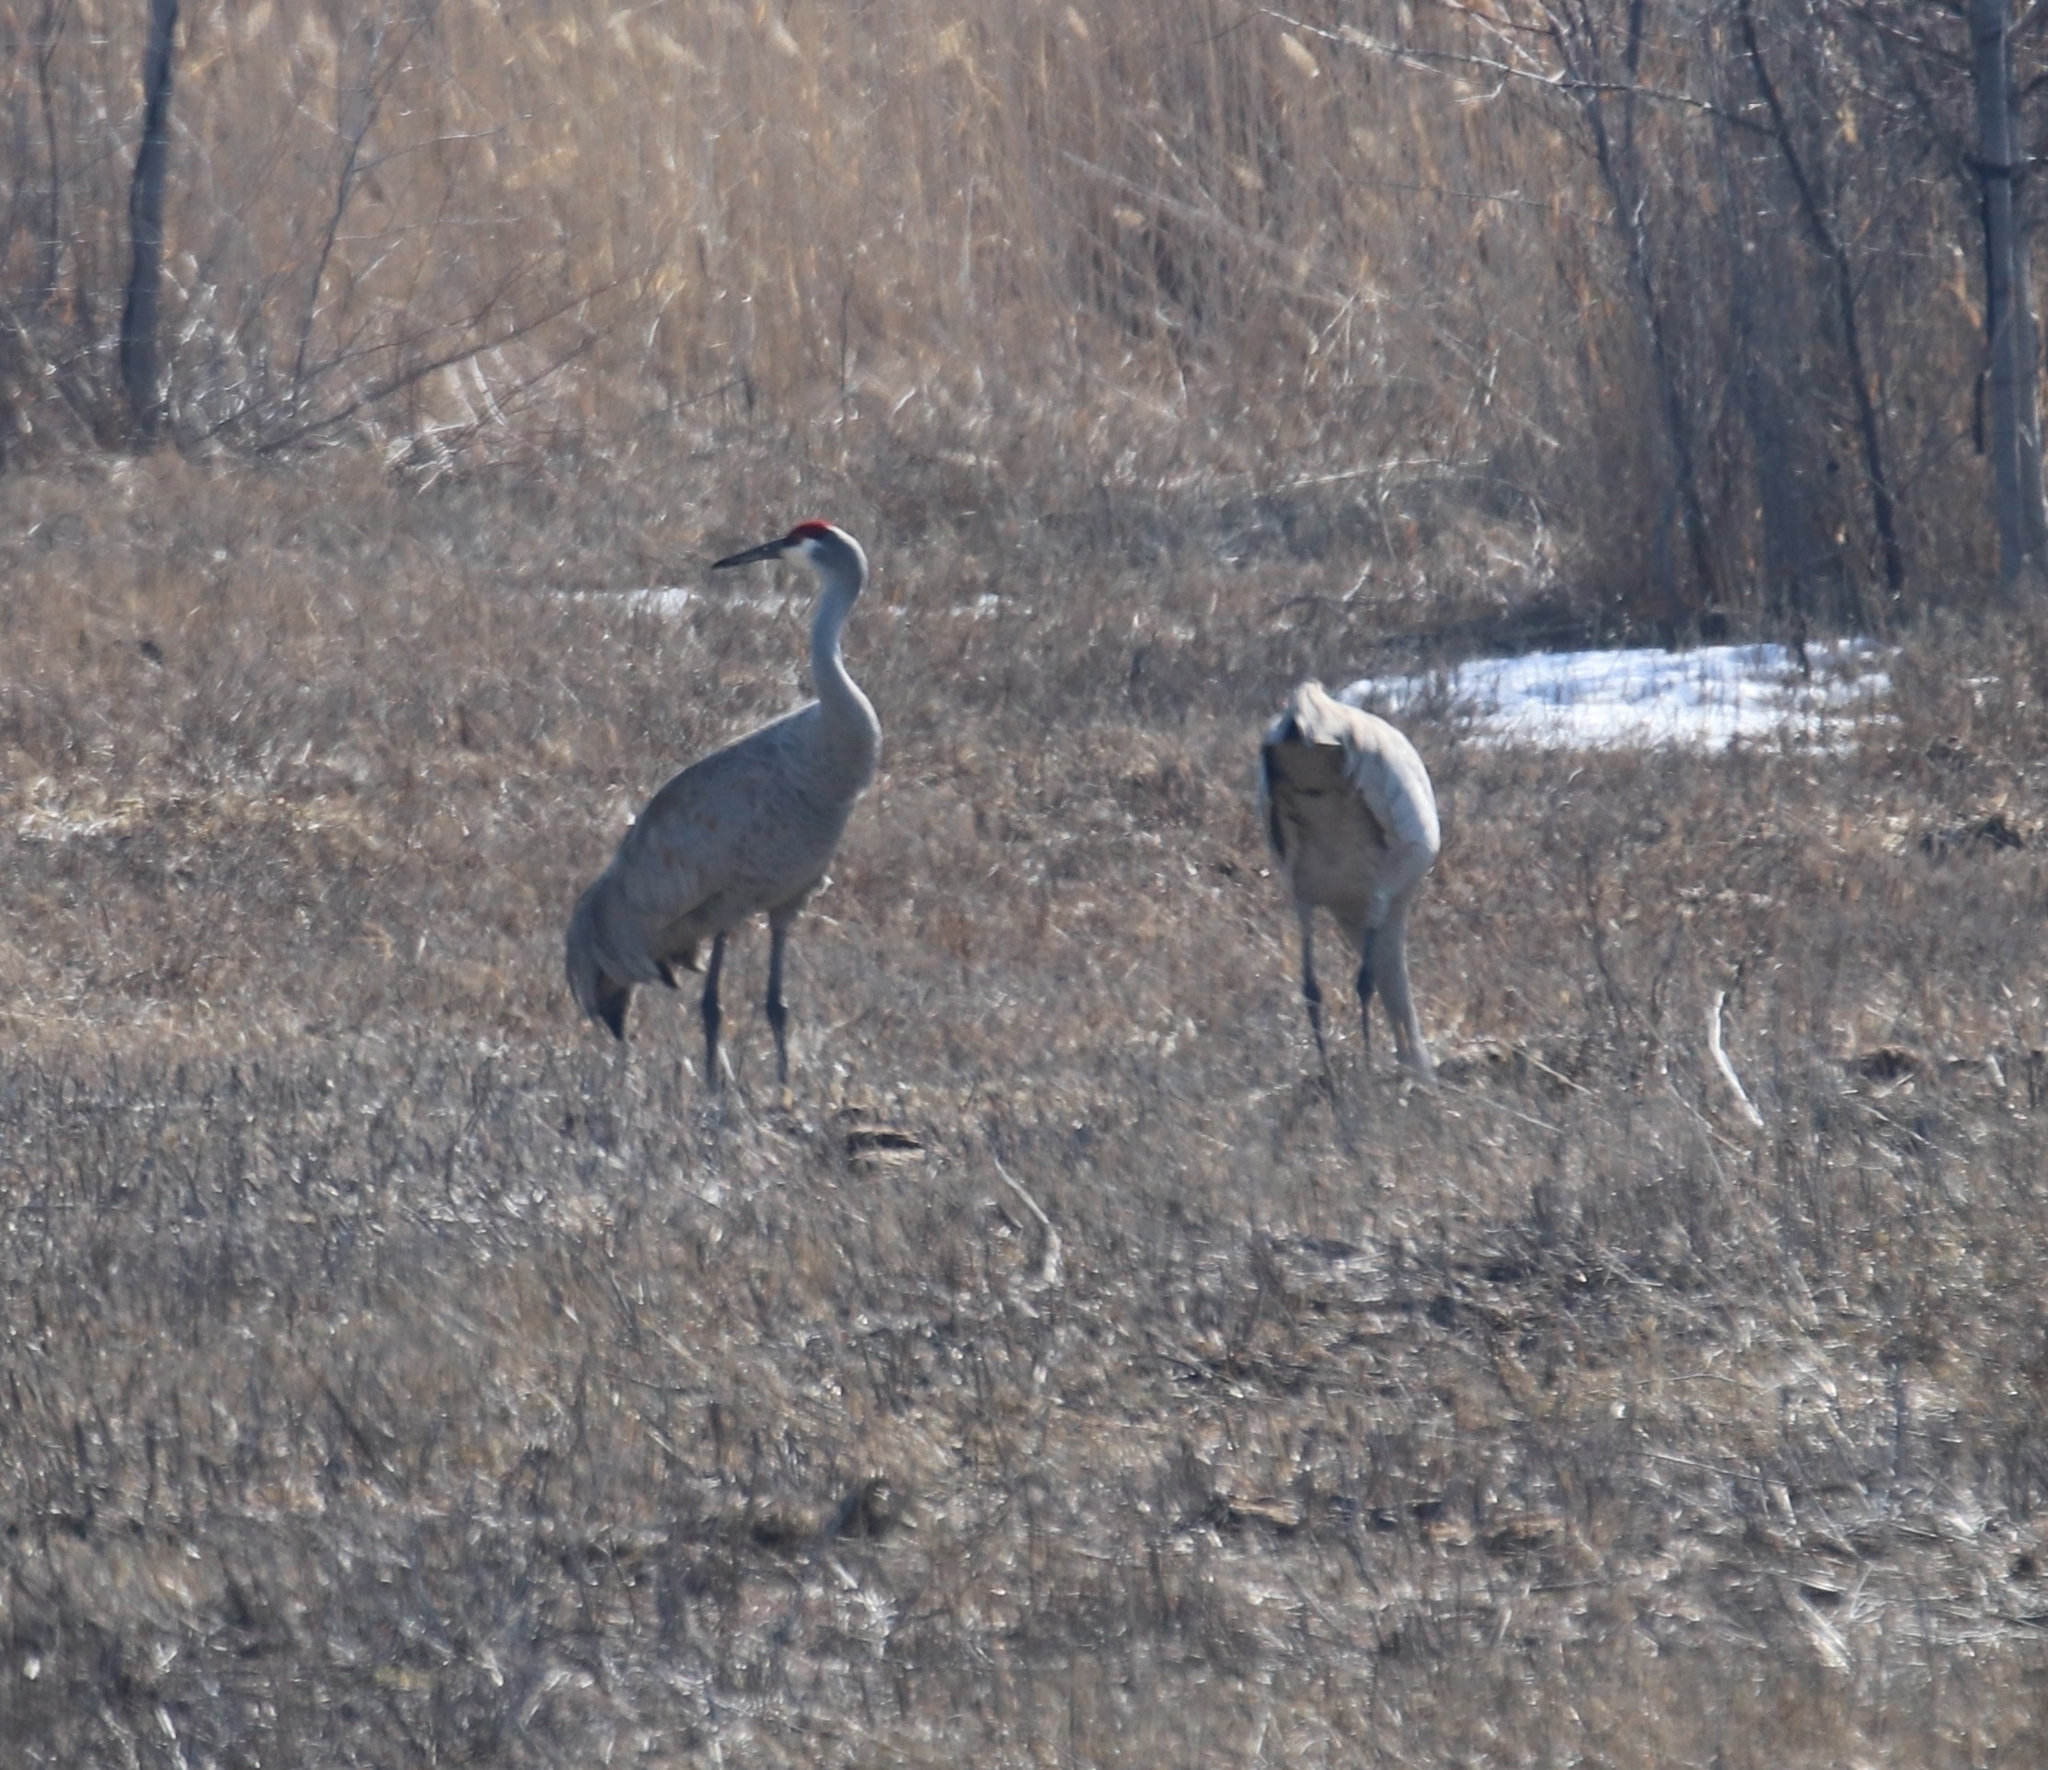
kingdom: Animalia
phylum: Chordata
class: Aves
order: Gruiformes
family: Gruidae
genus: Grus
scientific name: Grus canadensis
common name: Sandhill crane
